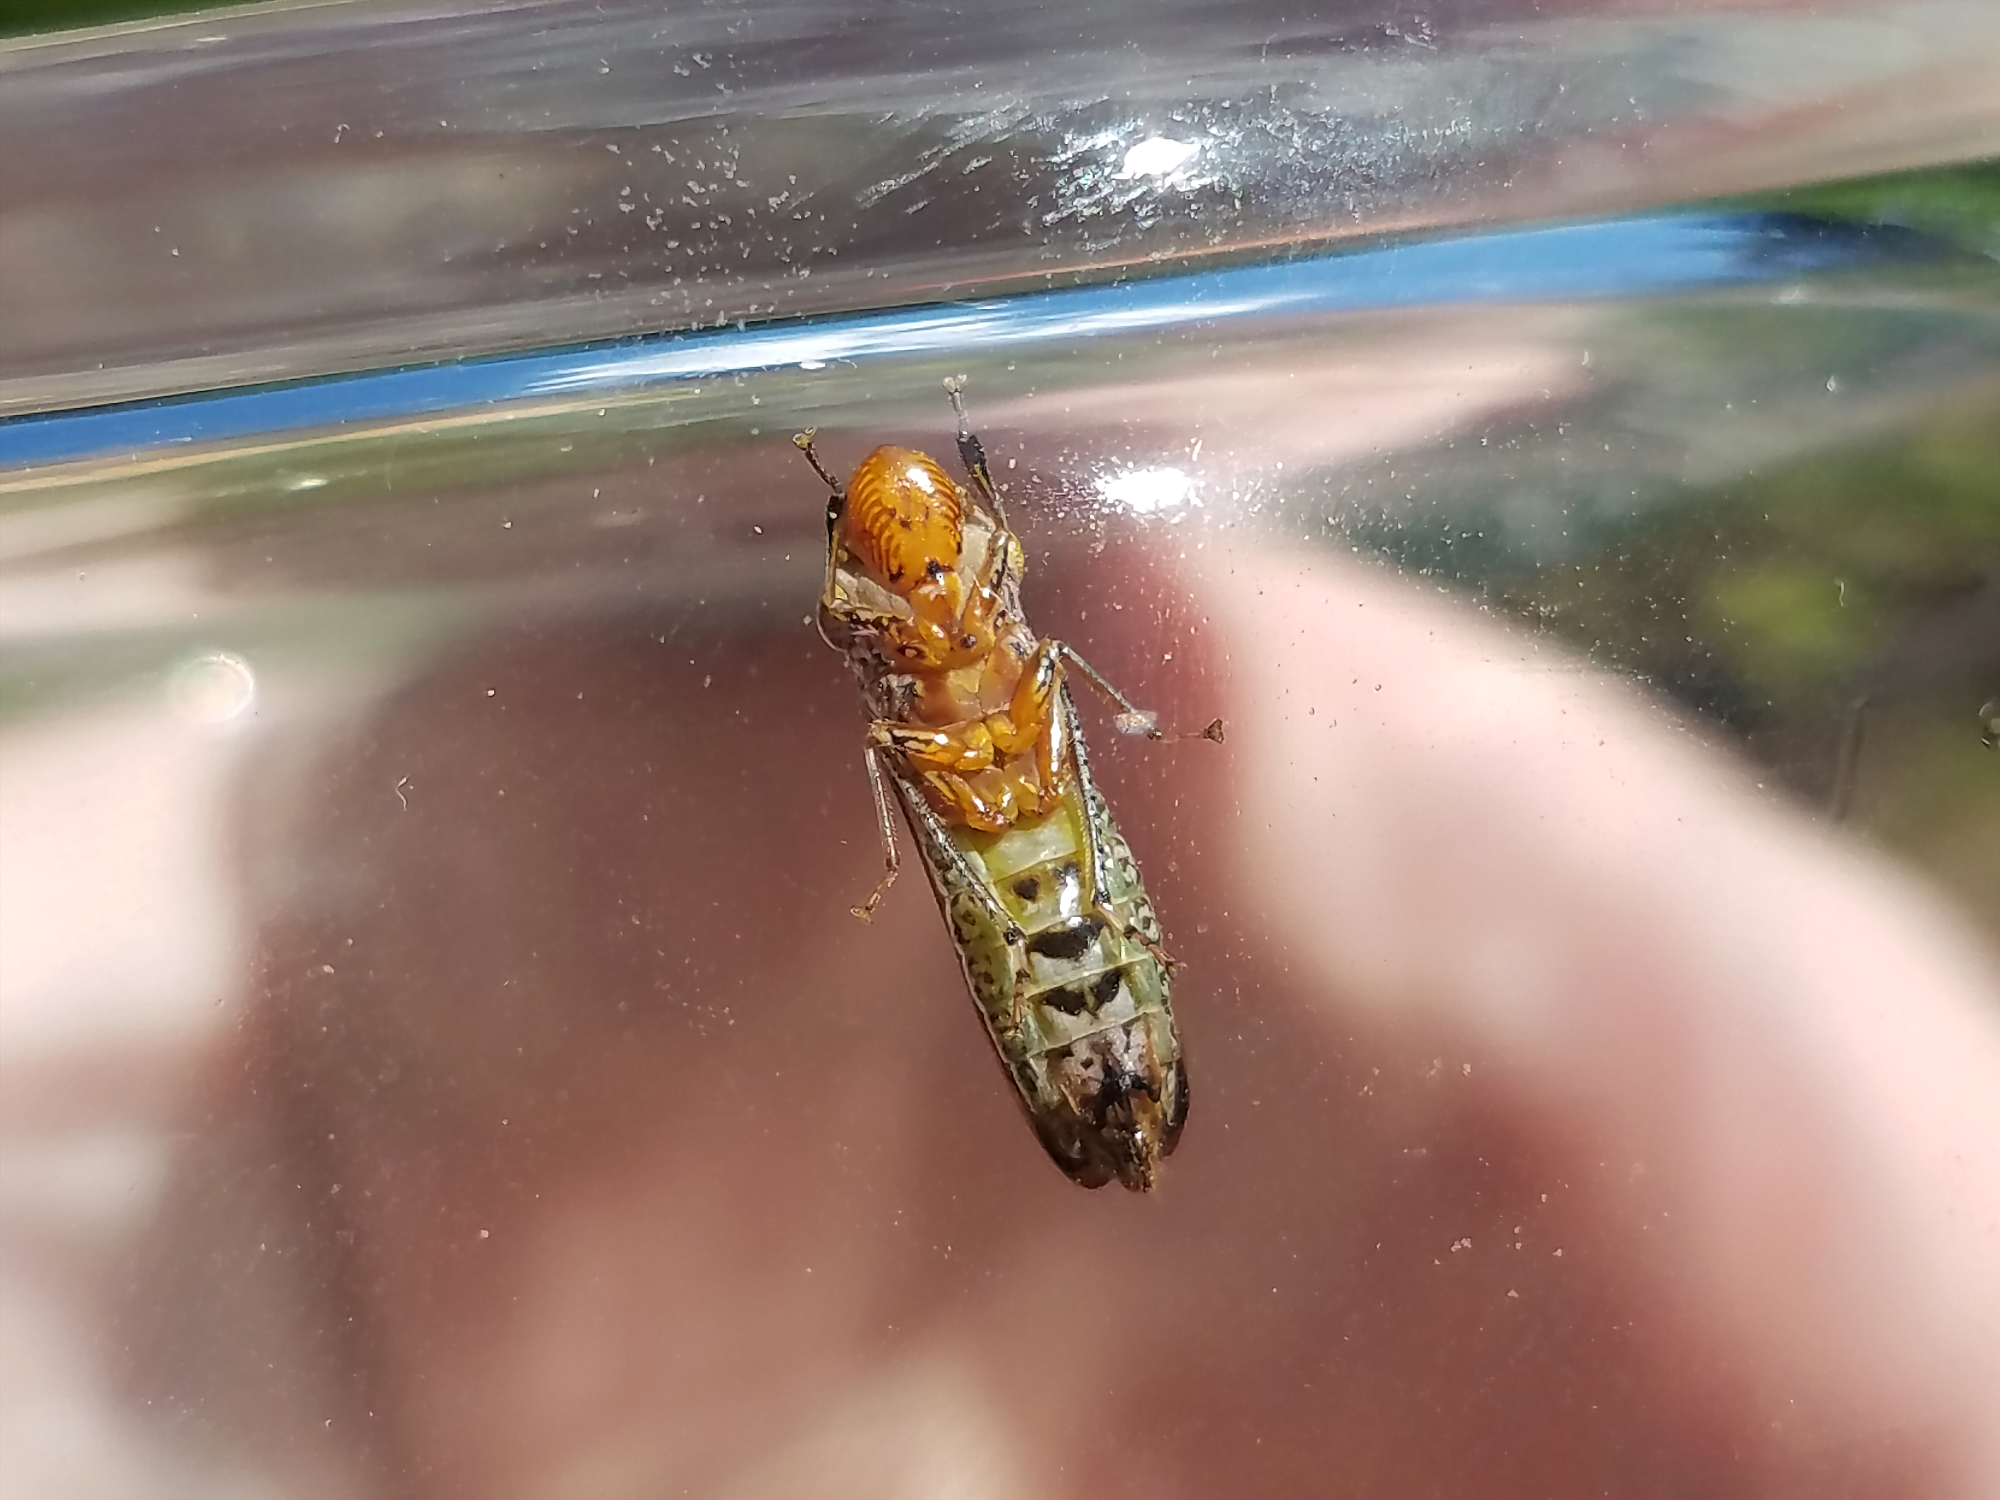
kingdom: Animalia
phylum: Arthropoda
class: Insecta
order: Hemiptera
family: Cicadellidae
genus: Homalodisca
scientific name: Homalodisca vitripennis
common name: Glassy-winged sharpshooter
